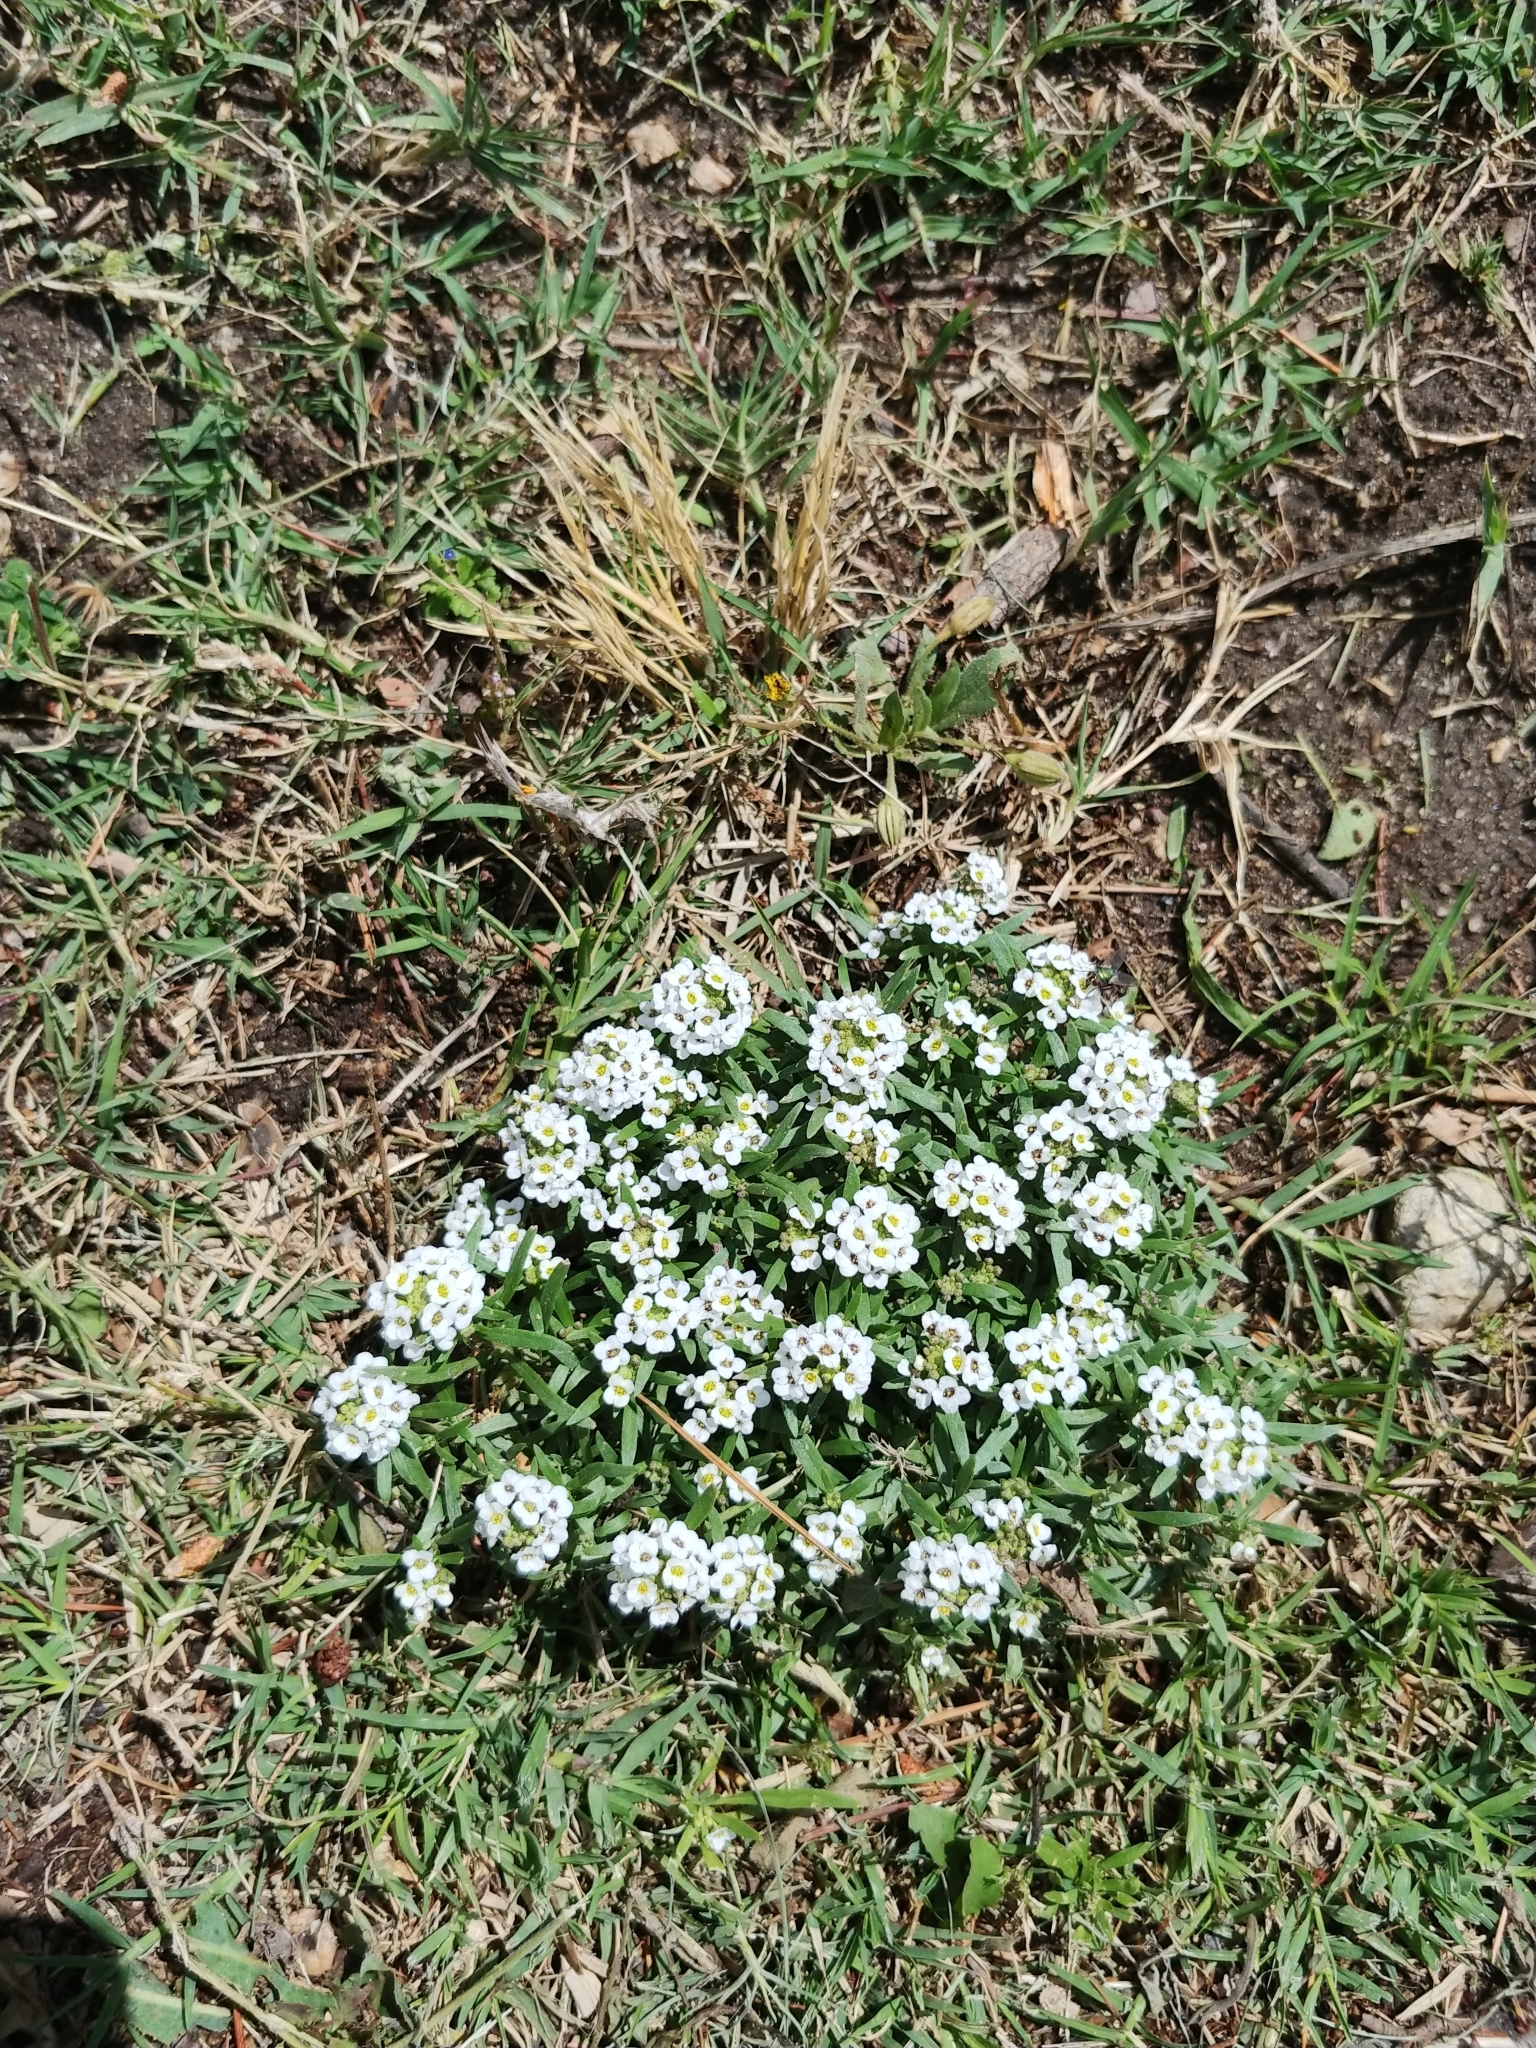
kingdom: Plantae
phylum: Tracheophyta
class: Magnoliopsida
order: Brassicales
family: Brassicaceae
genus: Lobularia
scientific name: Lobularia maritima
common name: Sweet alison
